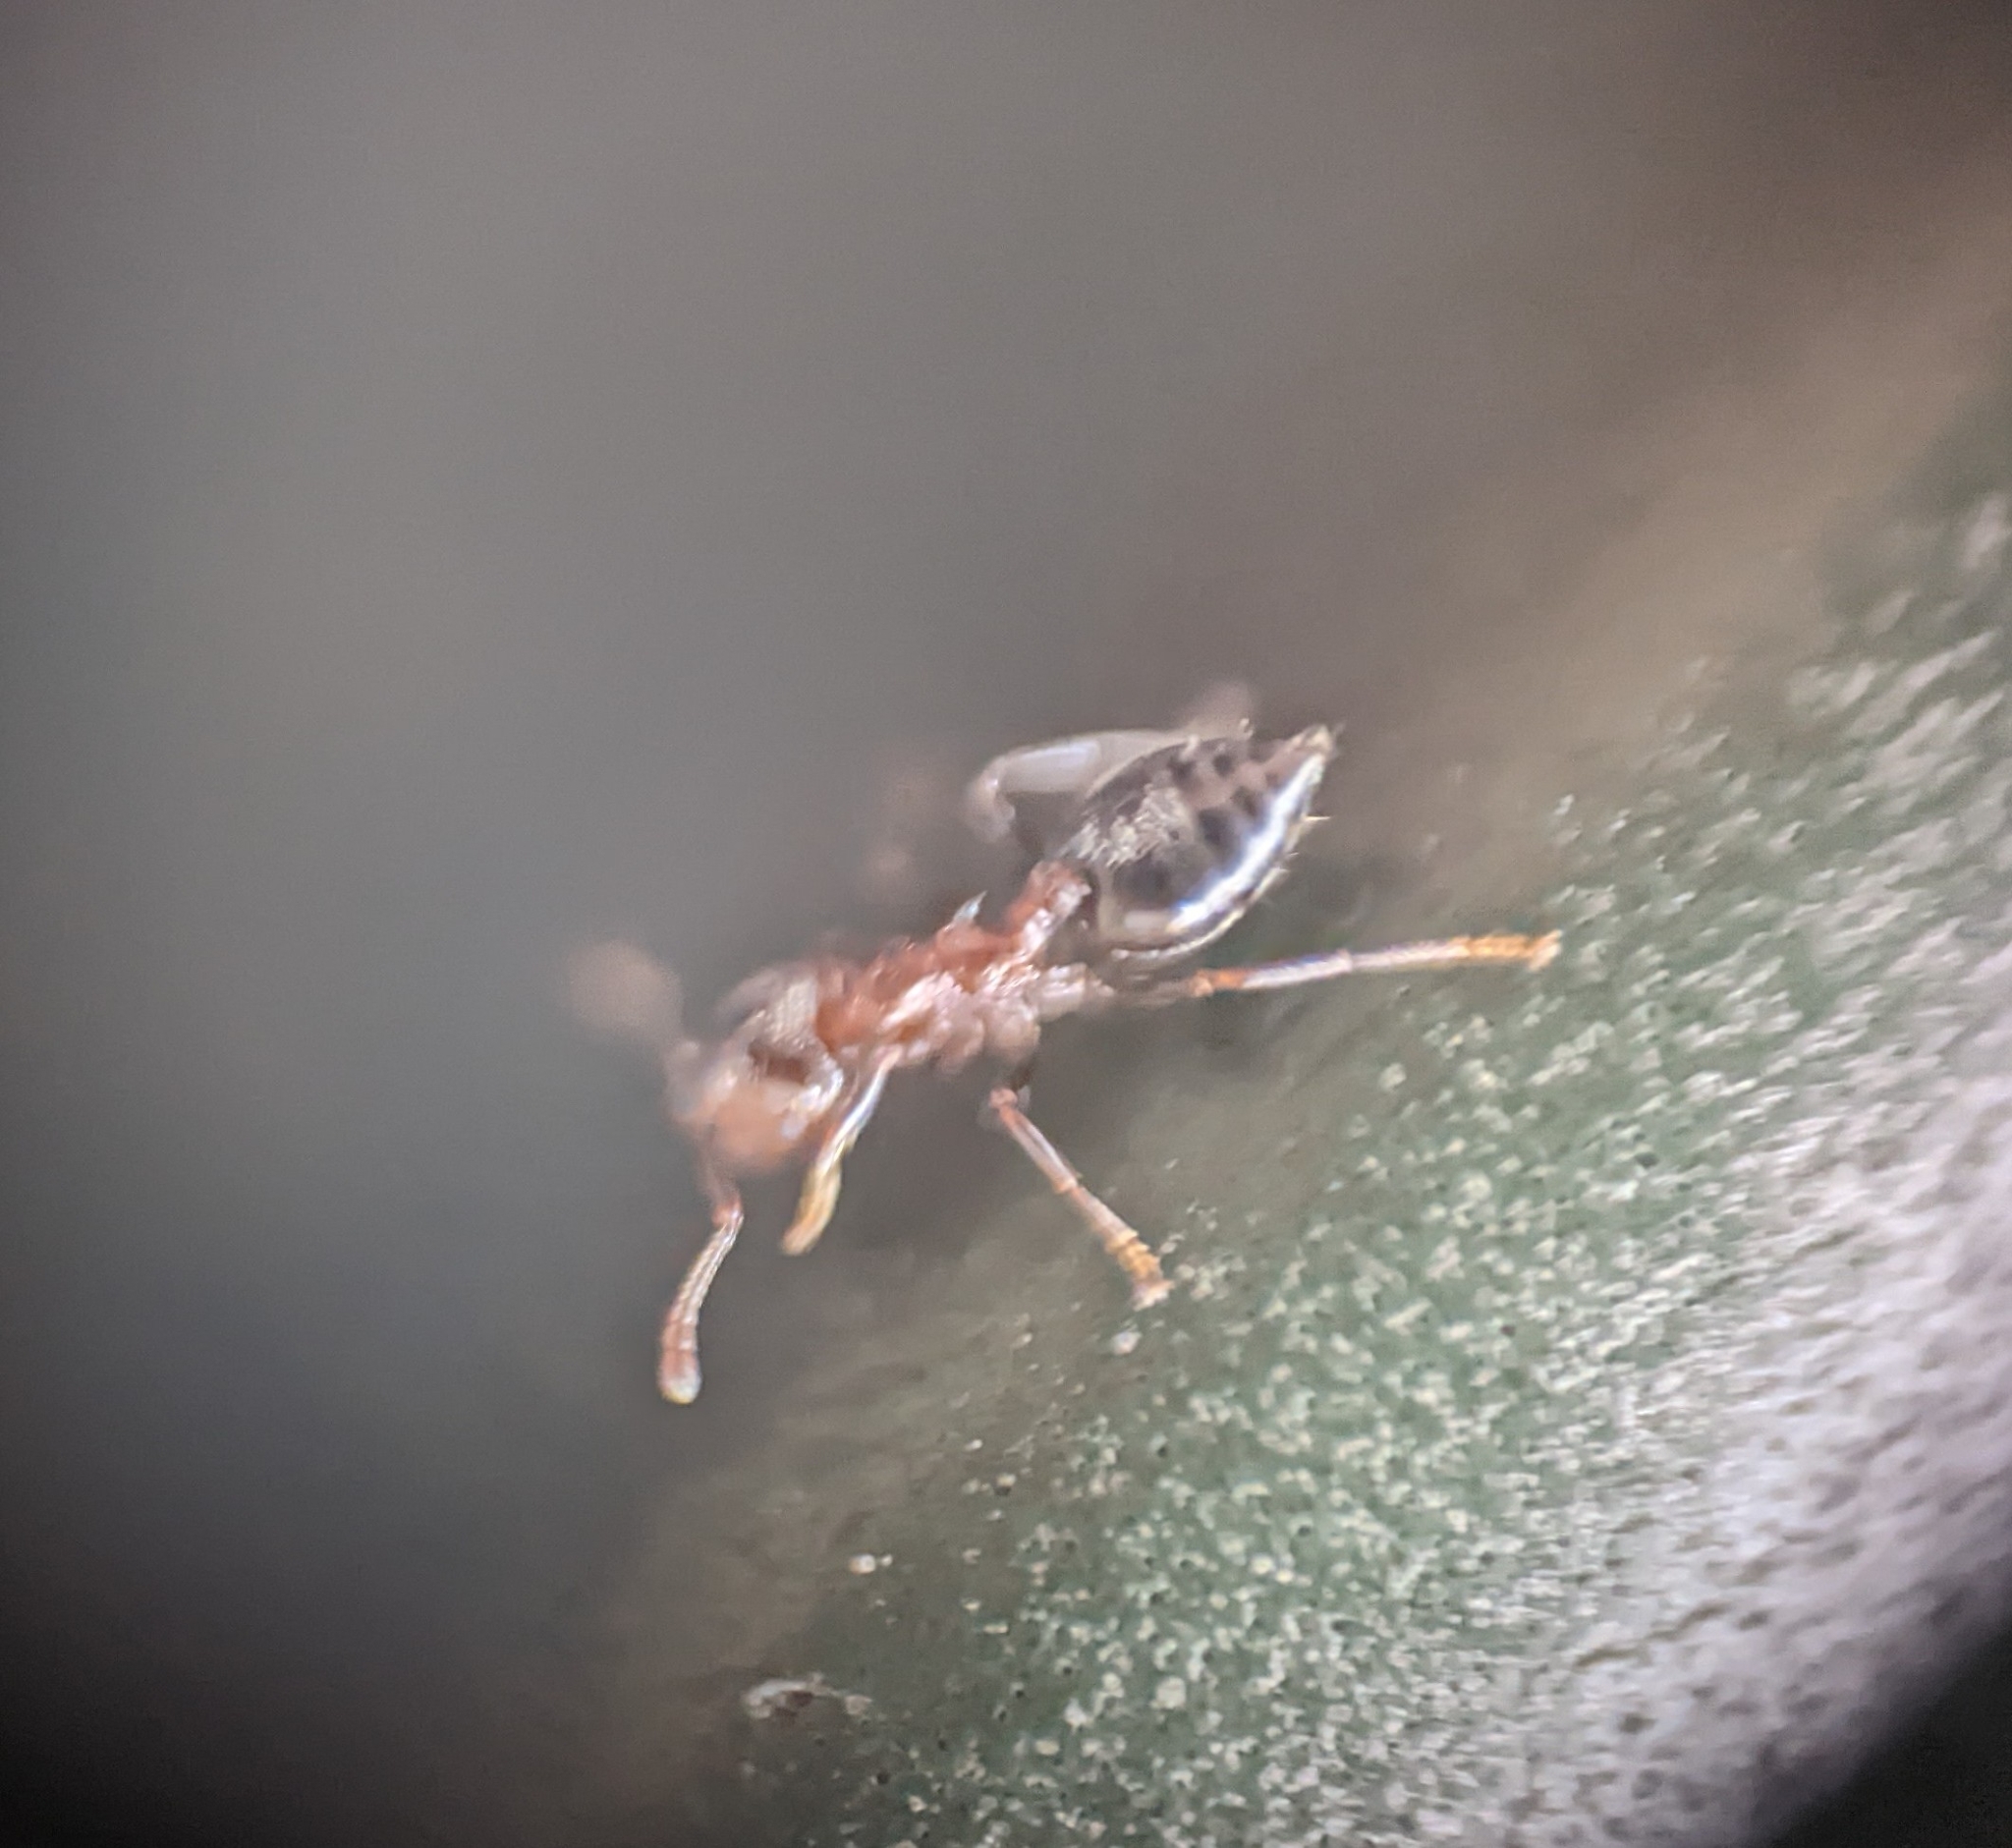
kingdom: Animalia
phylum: Arthropoda
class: Insecta
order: Hymenoptera
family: Formicidae
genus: Crematogaster
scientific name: Crematogaster ashmeadi
